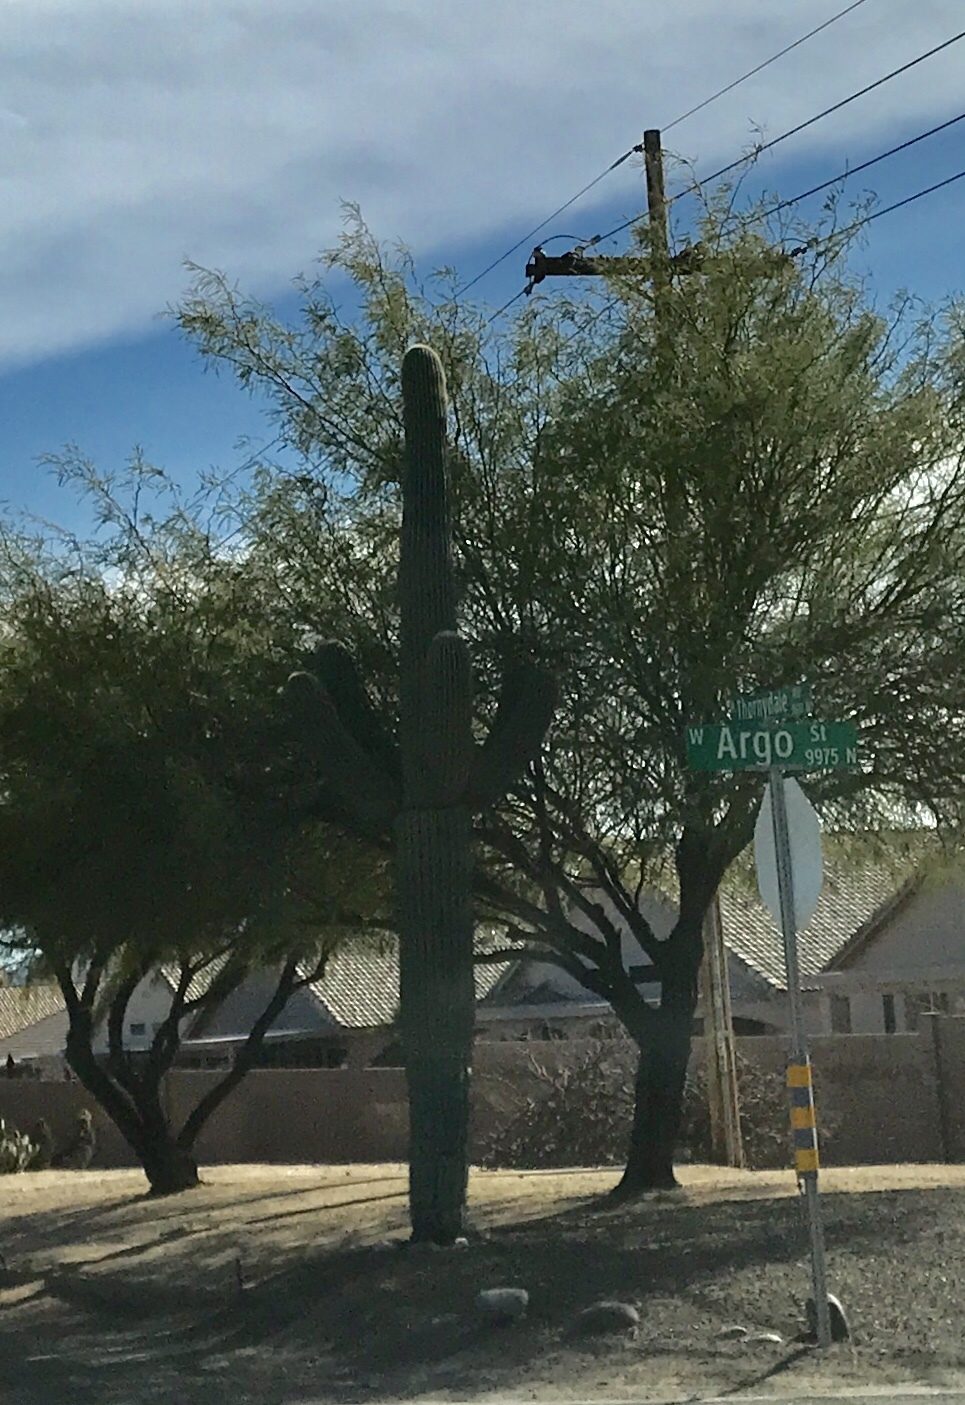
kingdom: Plantae
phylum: Tracheophyta
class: Magnoliopsida
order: Caryophyllales
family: Cactaceae
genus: Carnegiea
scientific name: Carnegiea gigantea
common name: Saguaro
